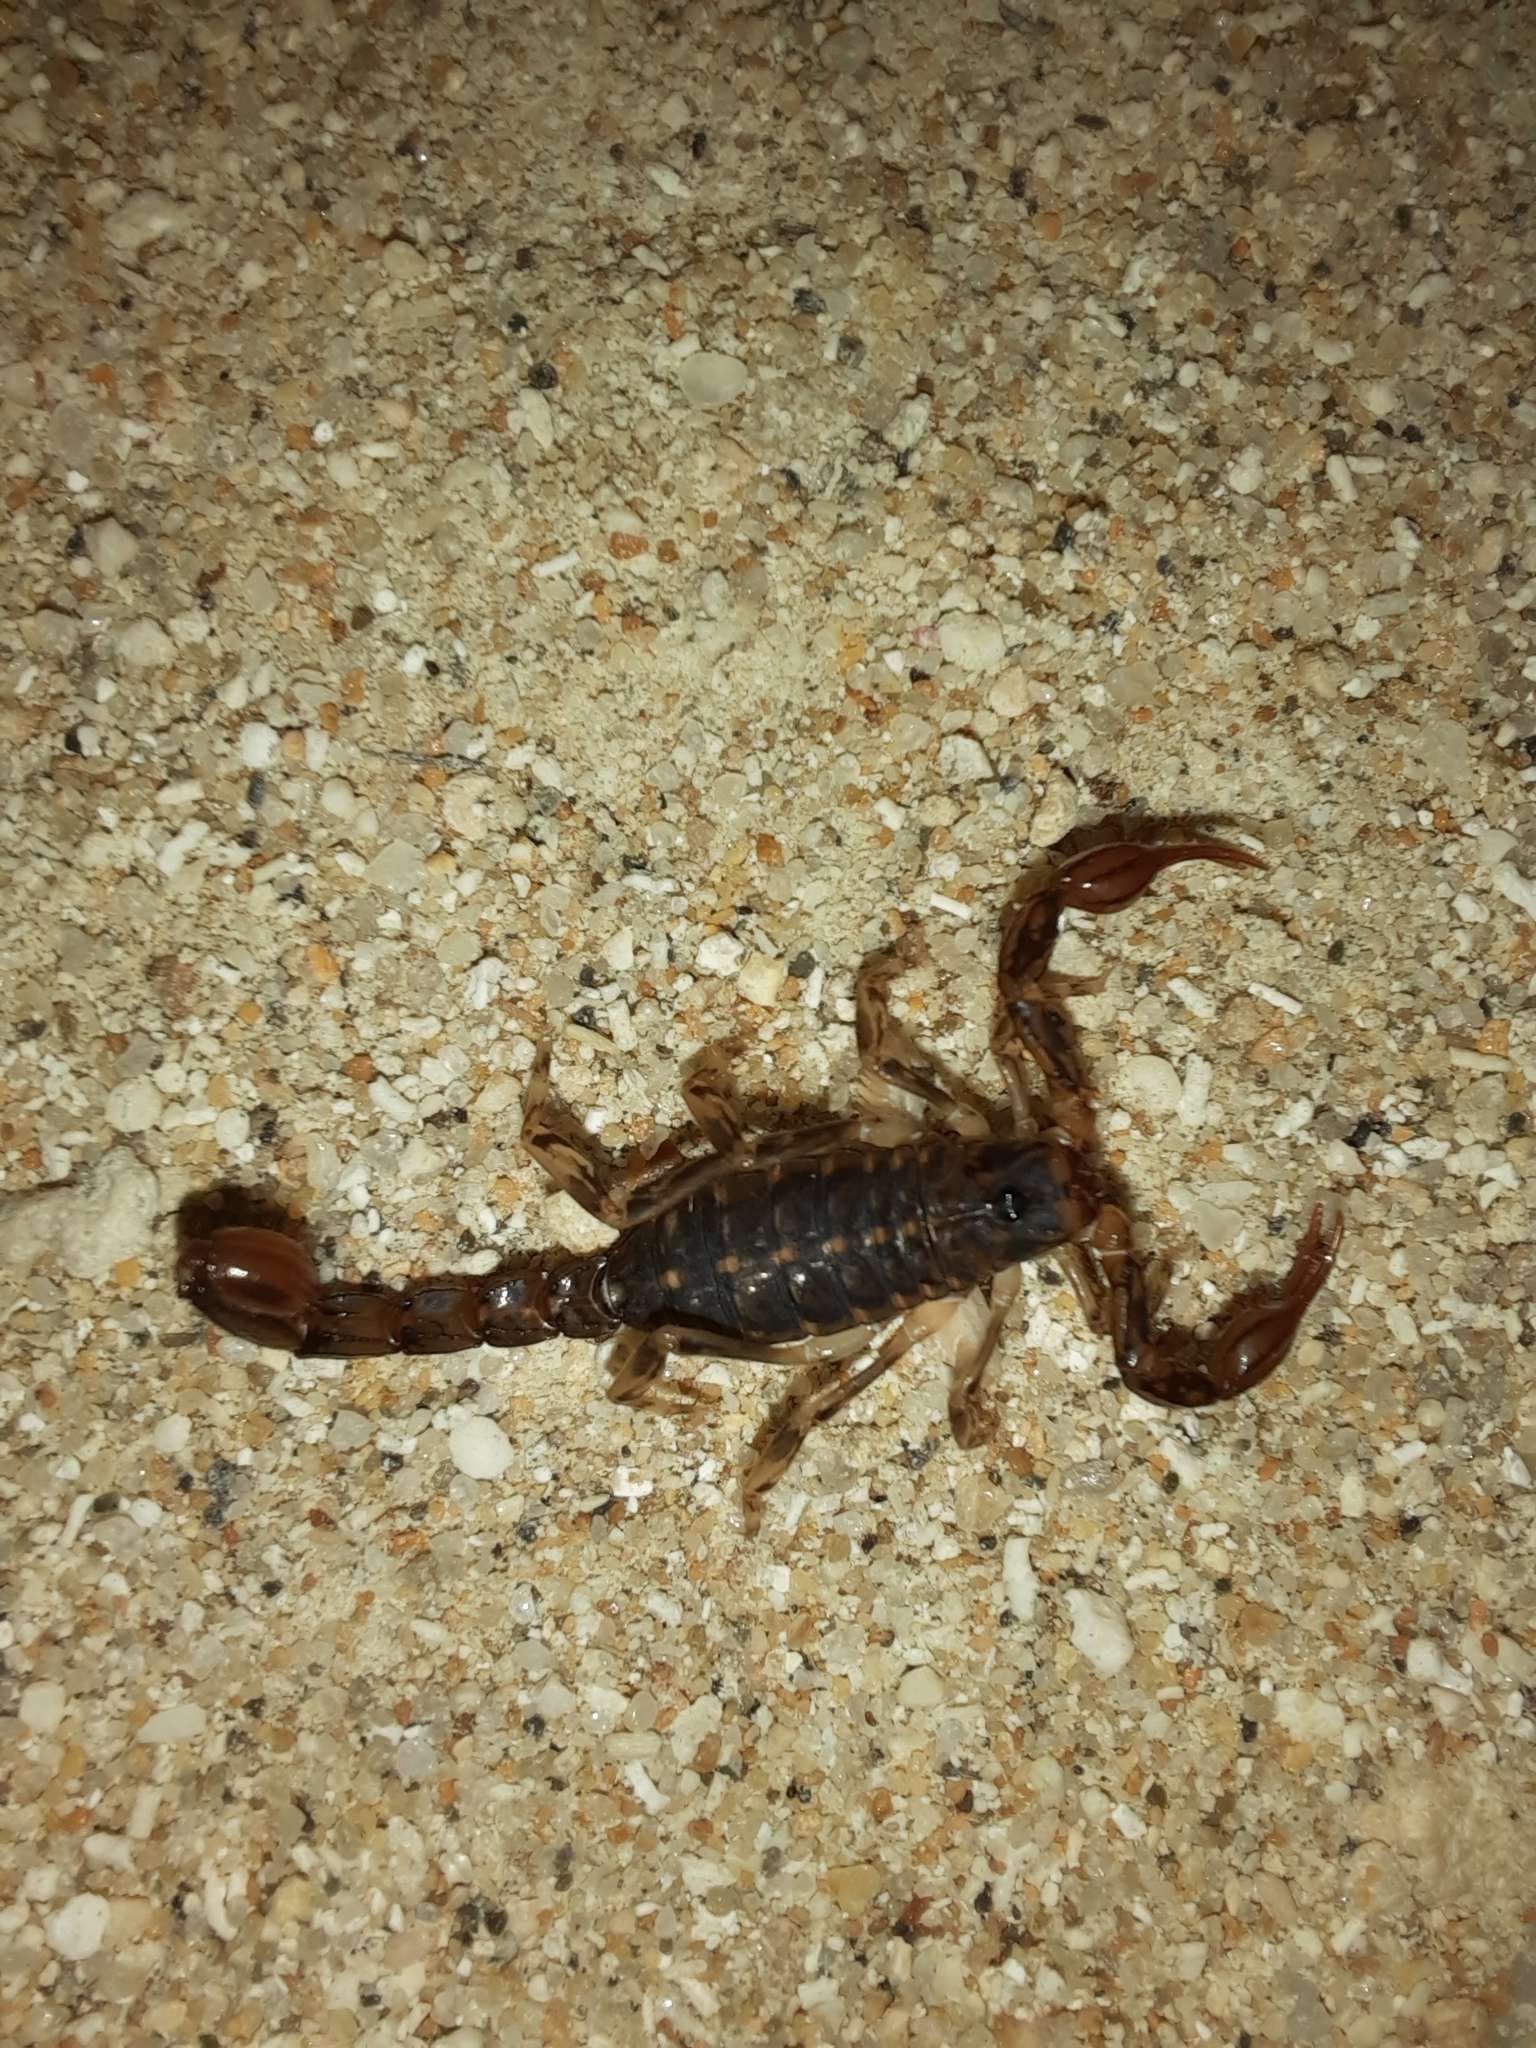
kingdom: Animalia
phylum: Arthropoda
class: Arachnida
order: Scorpiones
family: Bothriuridae
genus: Cercophonius
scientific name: Cercophonius squama
